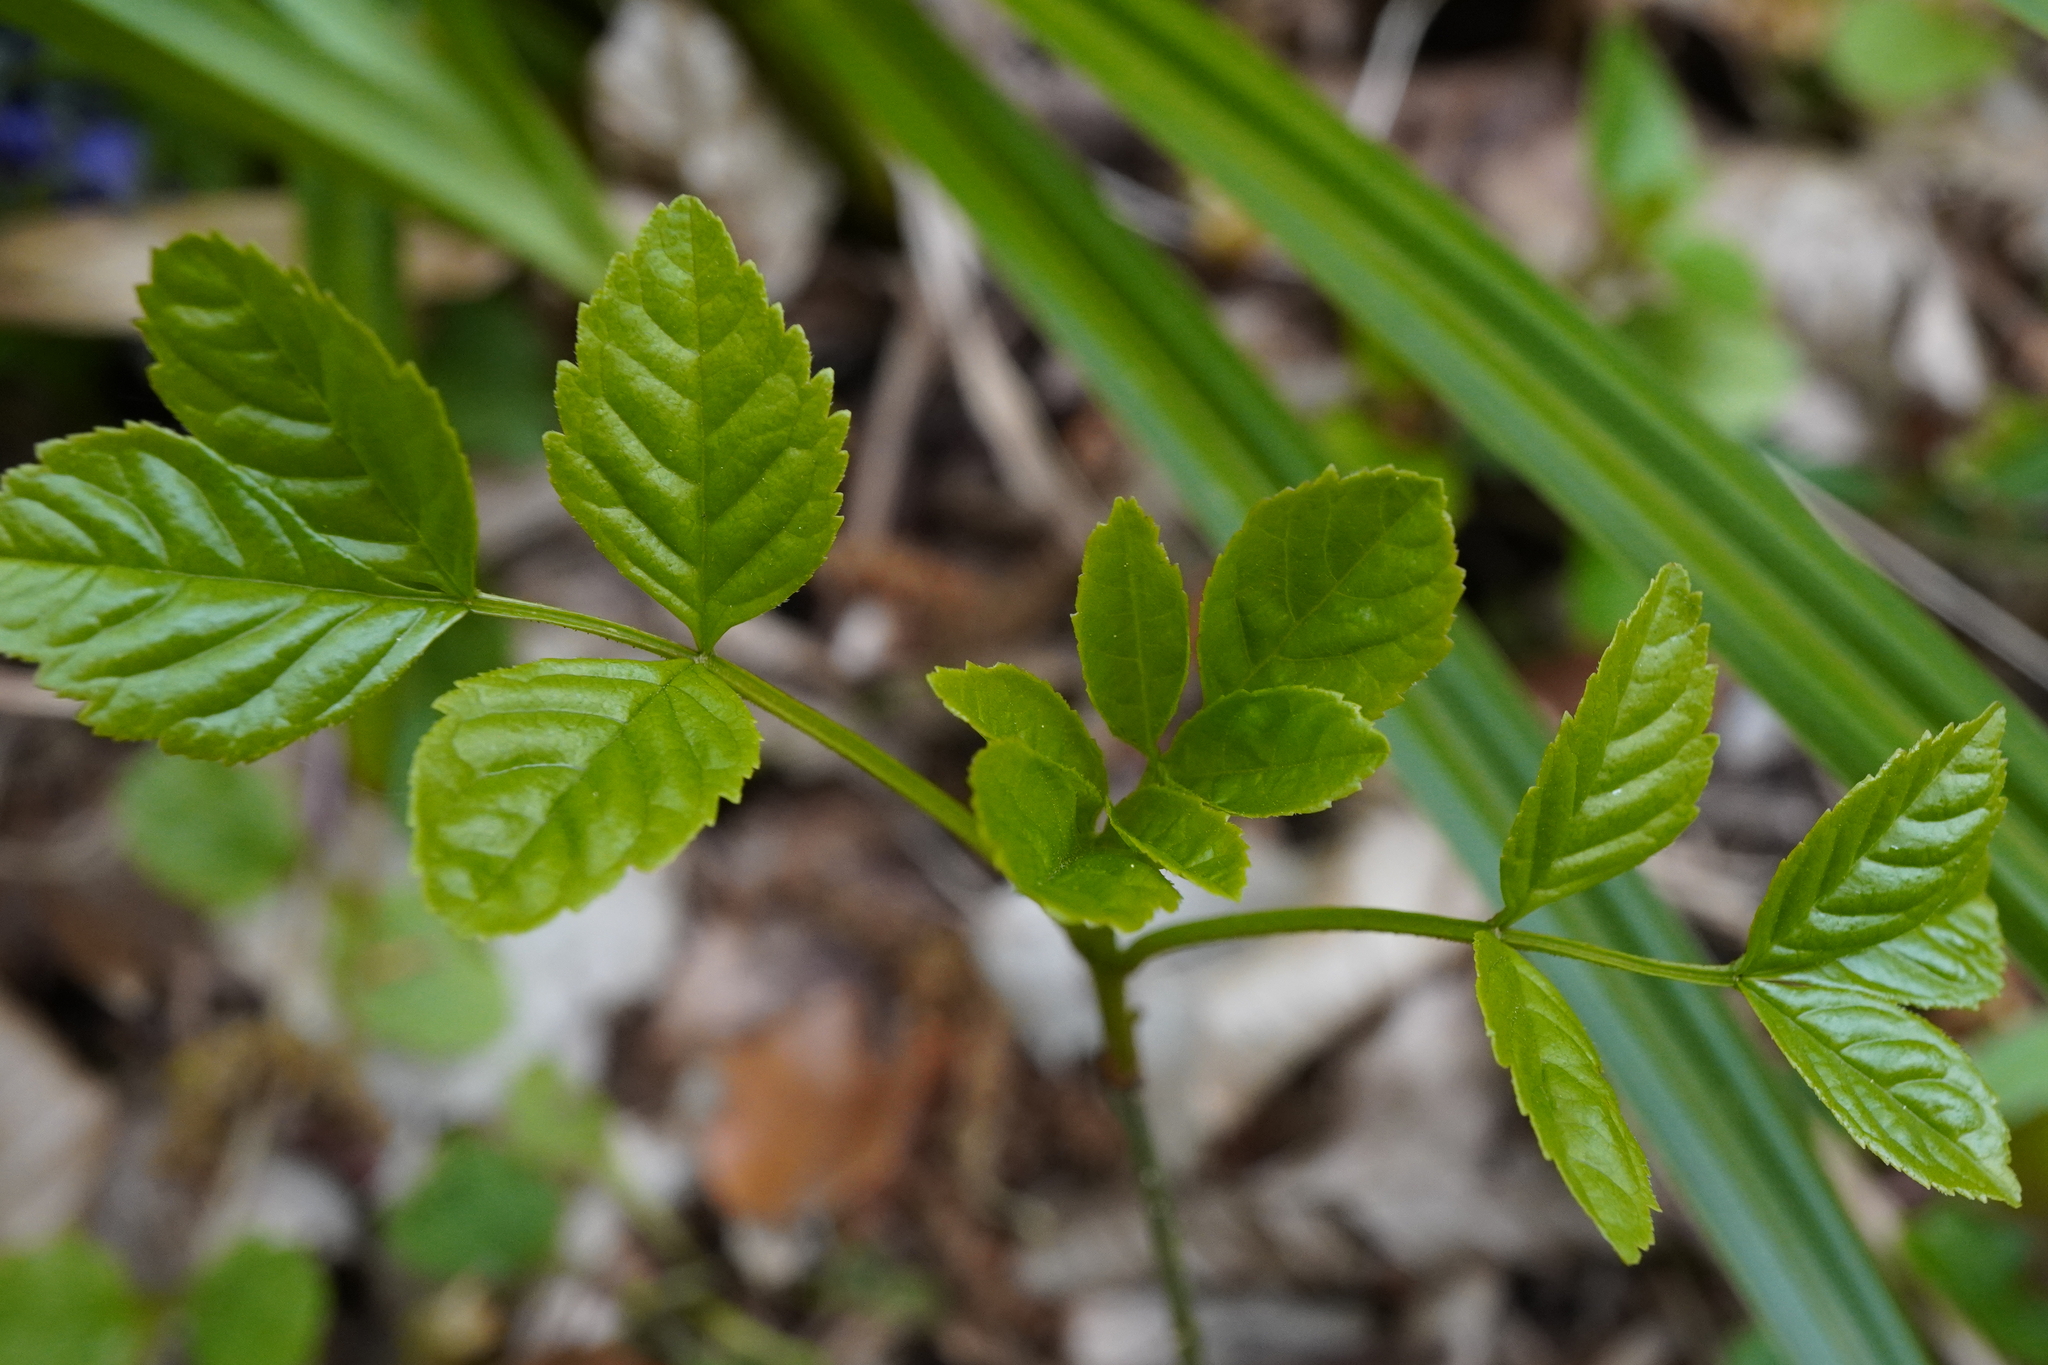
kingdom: Plantae
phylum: Tracheophyta
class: Magnoliopsida
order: Lamiales
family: Oleaceae
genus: Fraxinus
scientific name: Fraxinus excelsior
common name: European ash
